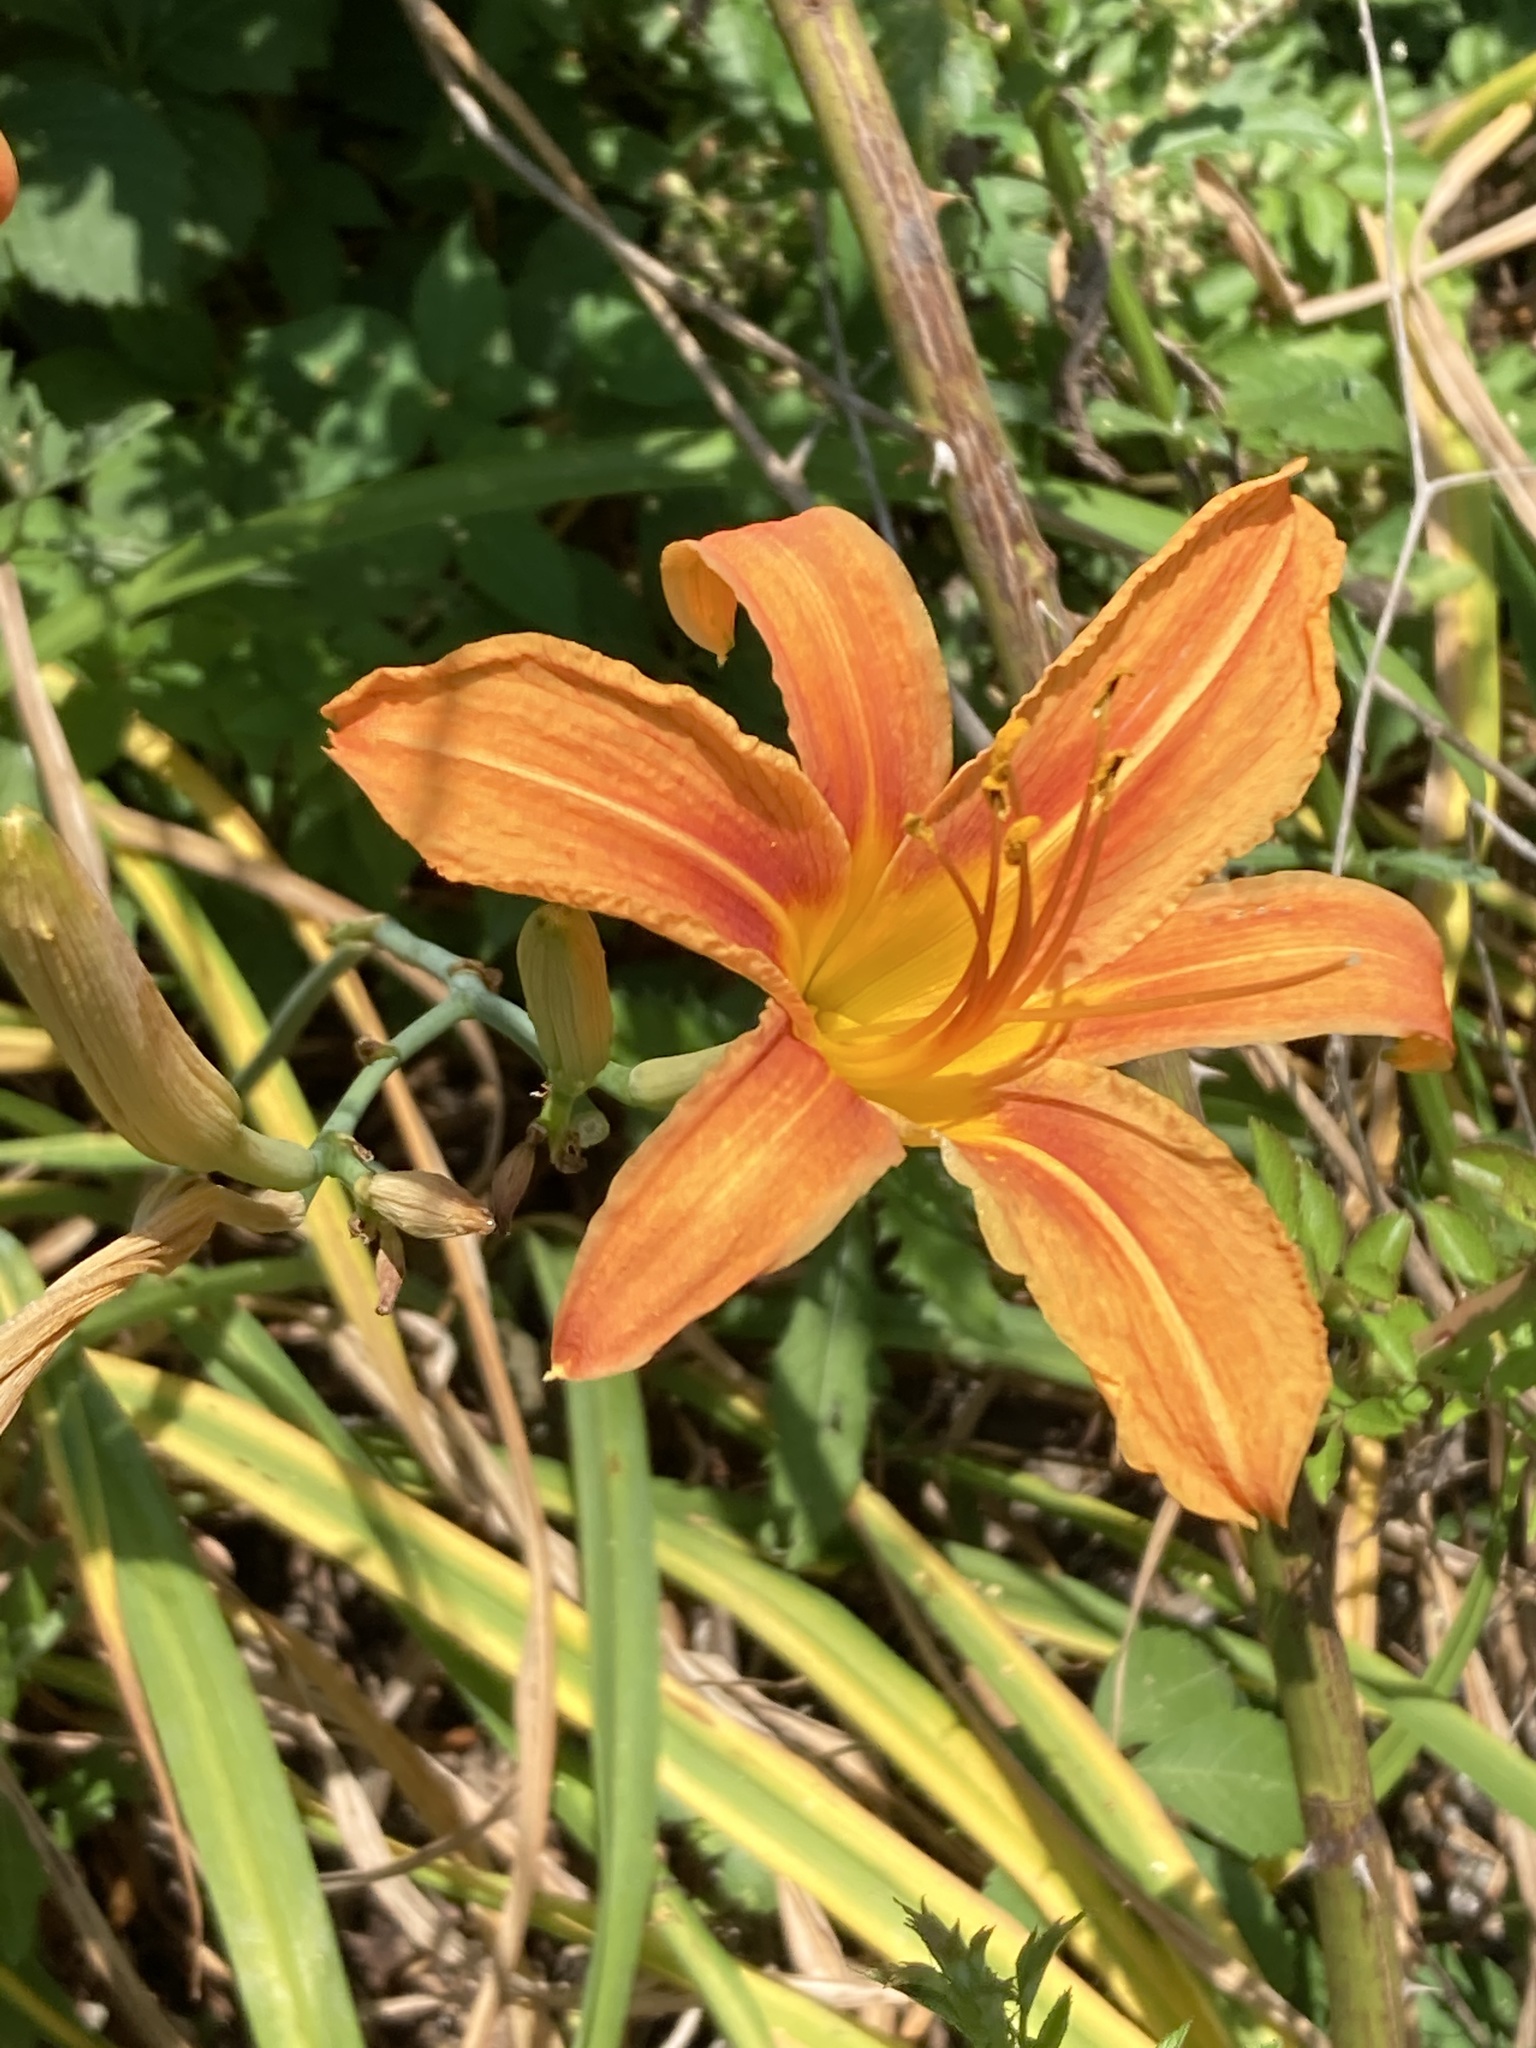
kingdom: Plantae
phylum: Tracheophyta
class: Liliopsida
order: Asparagales
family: Asphodelaceae
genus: Hemerocallis
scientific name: Hemerocallis fulva
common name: Orange day-lily
